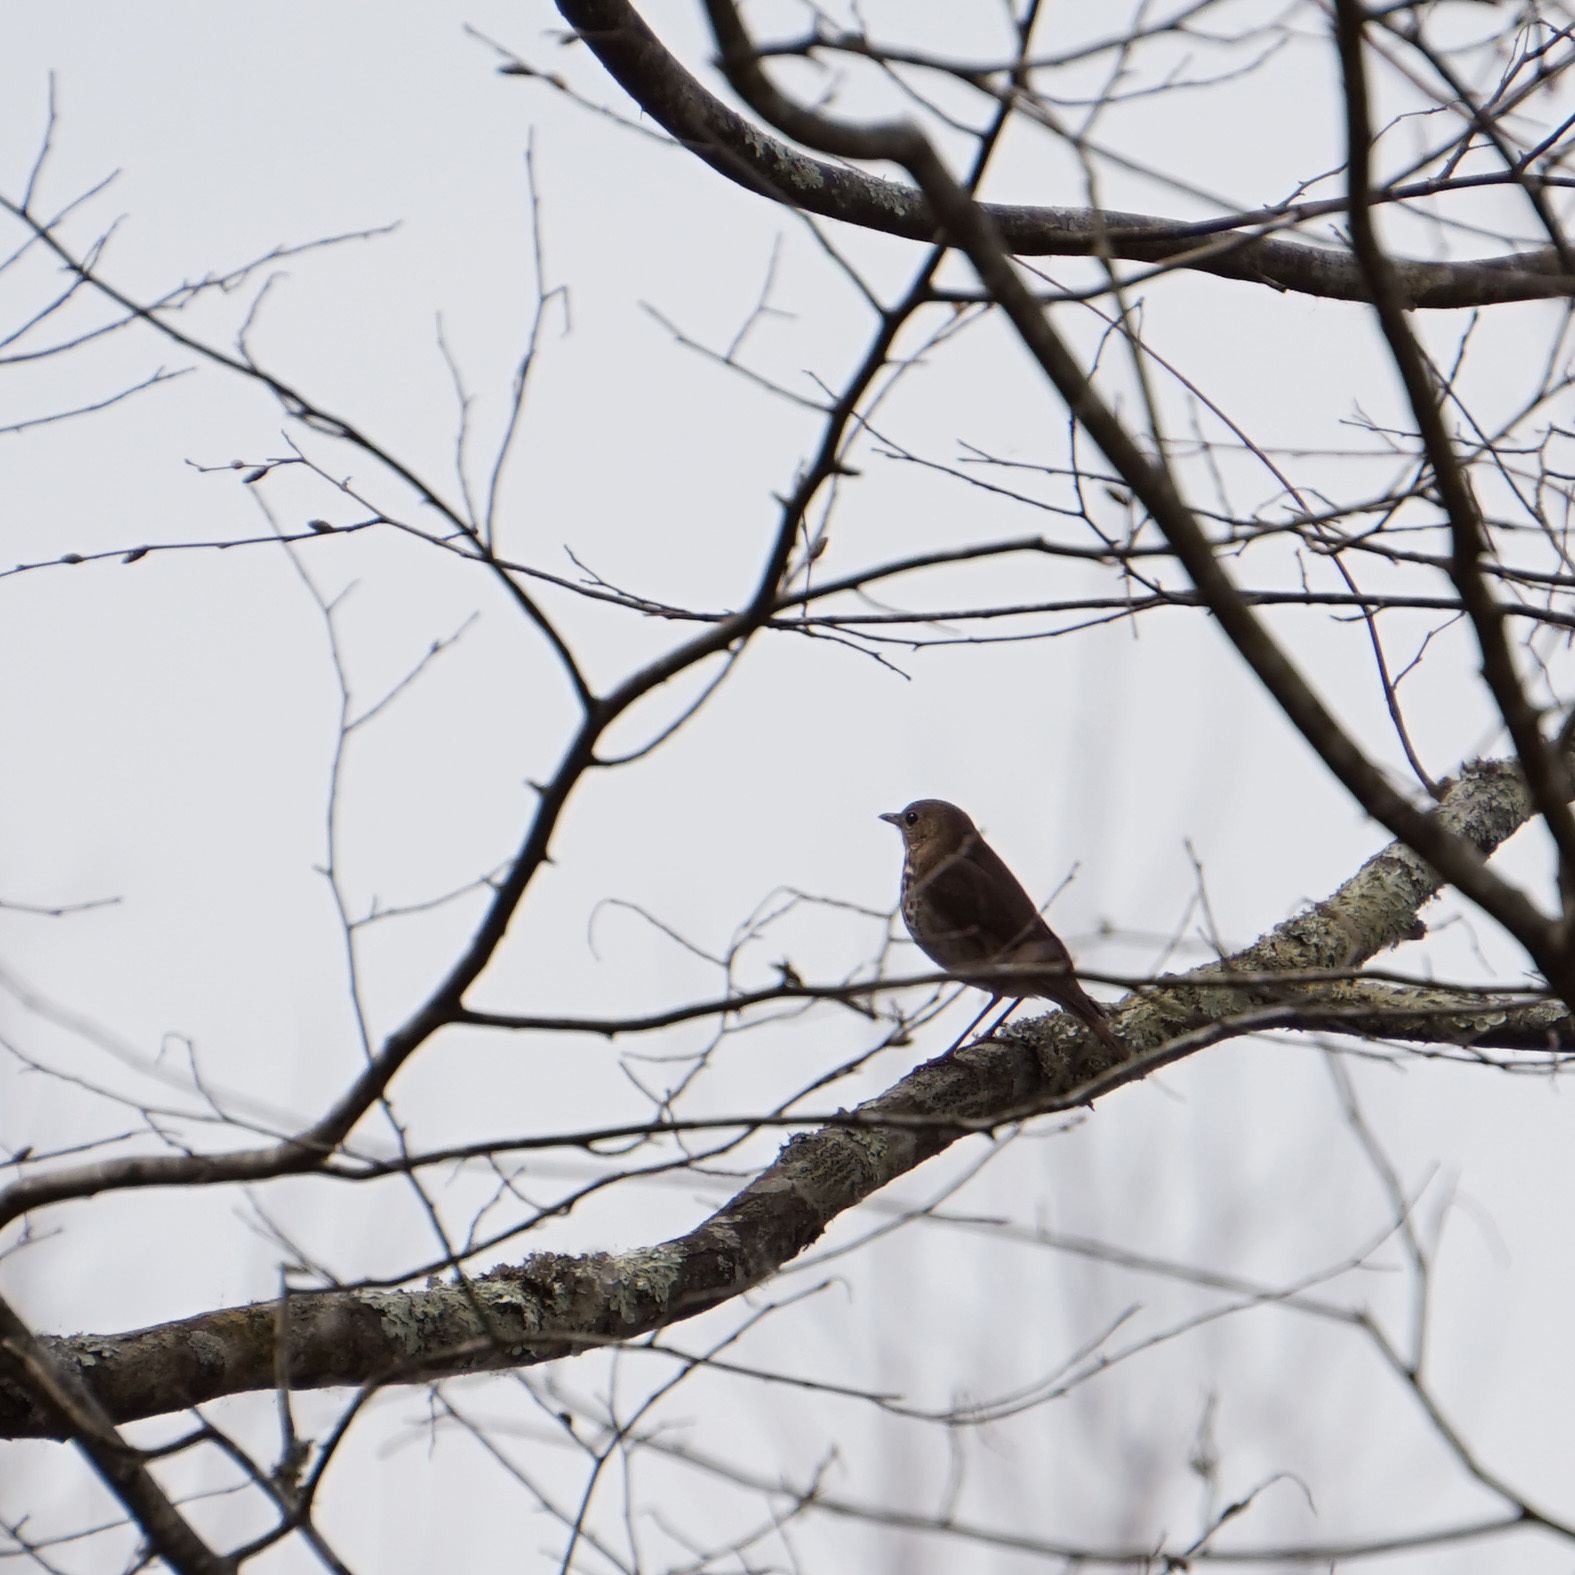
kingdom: Animalia
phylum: Chordata
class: Aves
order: Passeriformes
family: Turdidae
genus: Catharus
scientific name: Catharus guttatus
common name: Hermit thrush
